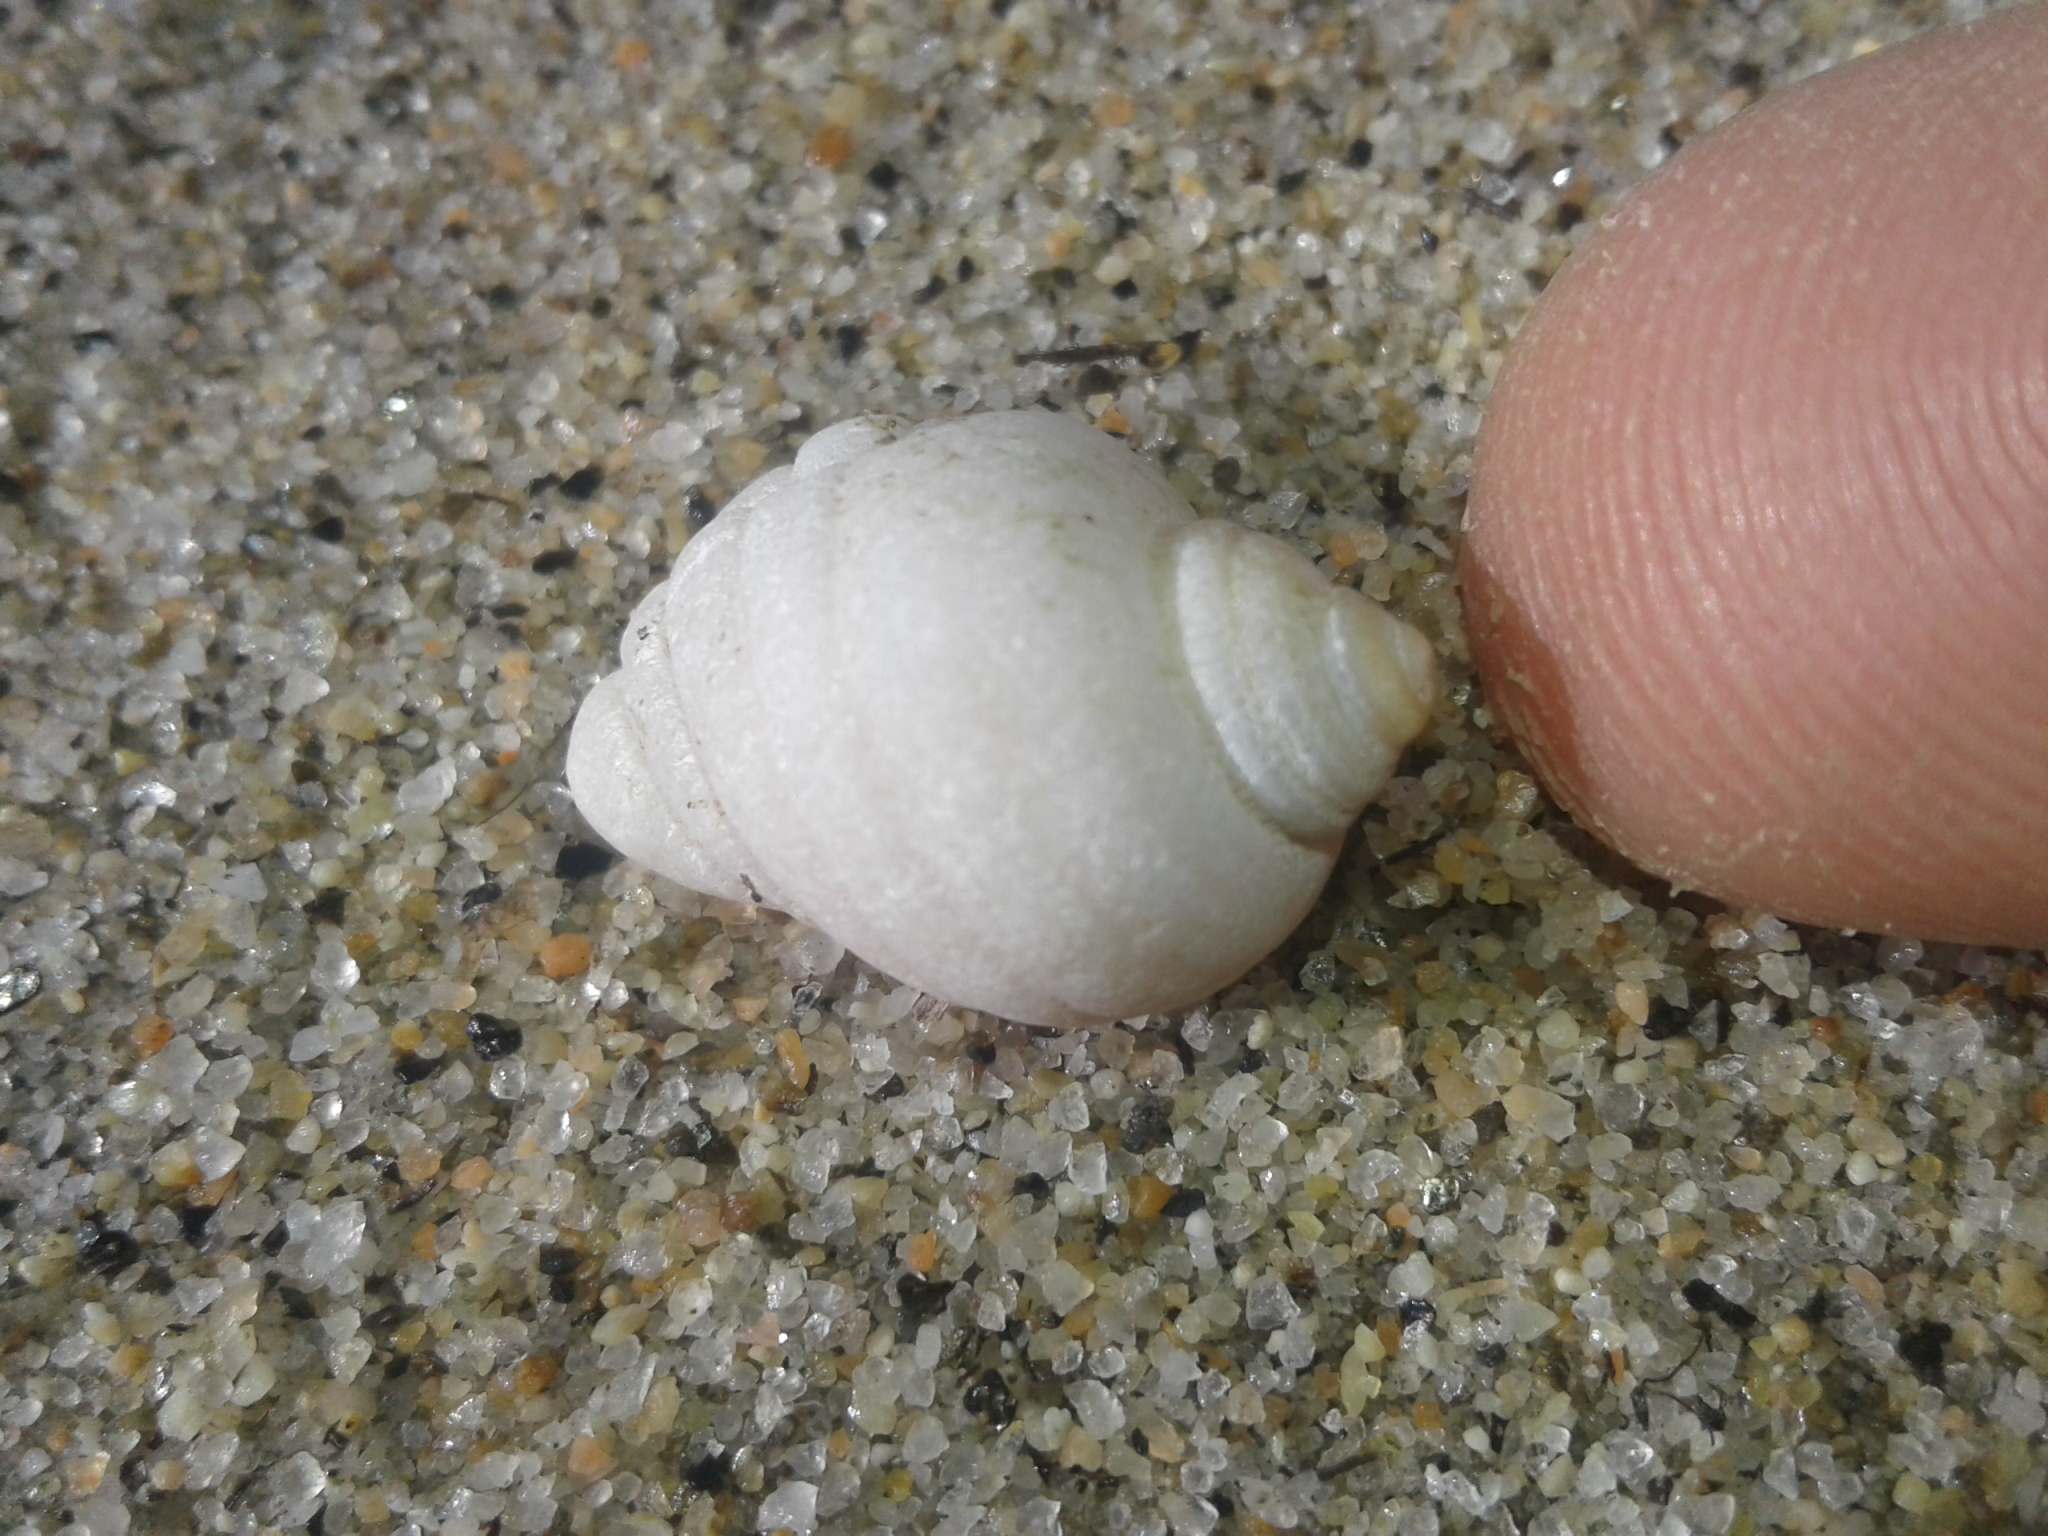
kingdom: Animalia
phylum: Mollusca
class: Gastropoda
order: Neogastropoda
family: Muricidae
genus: Paratrophon
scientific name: Paratrophon patens
